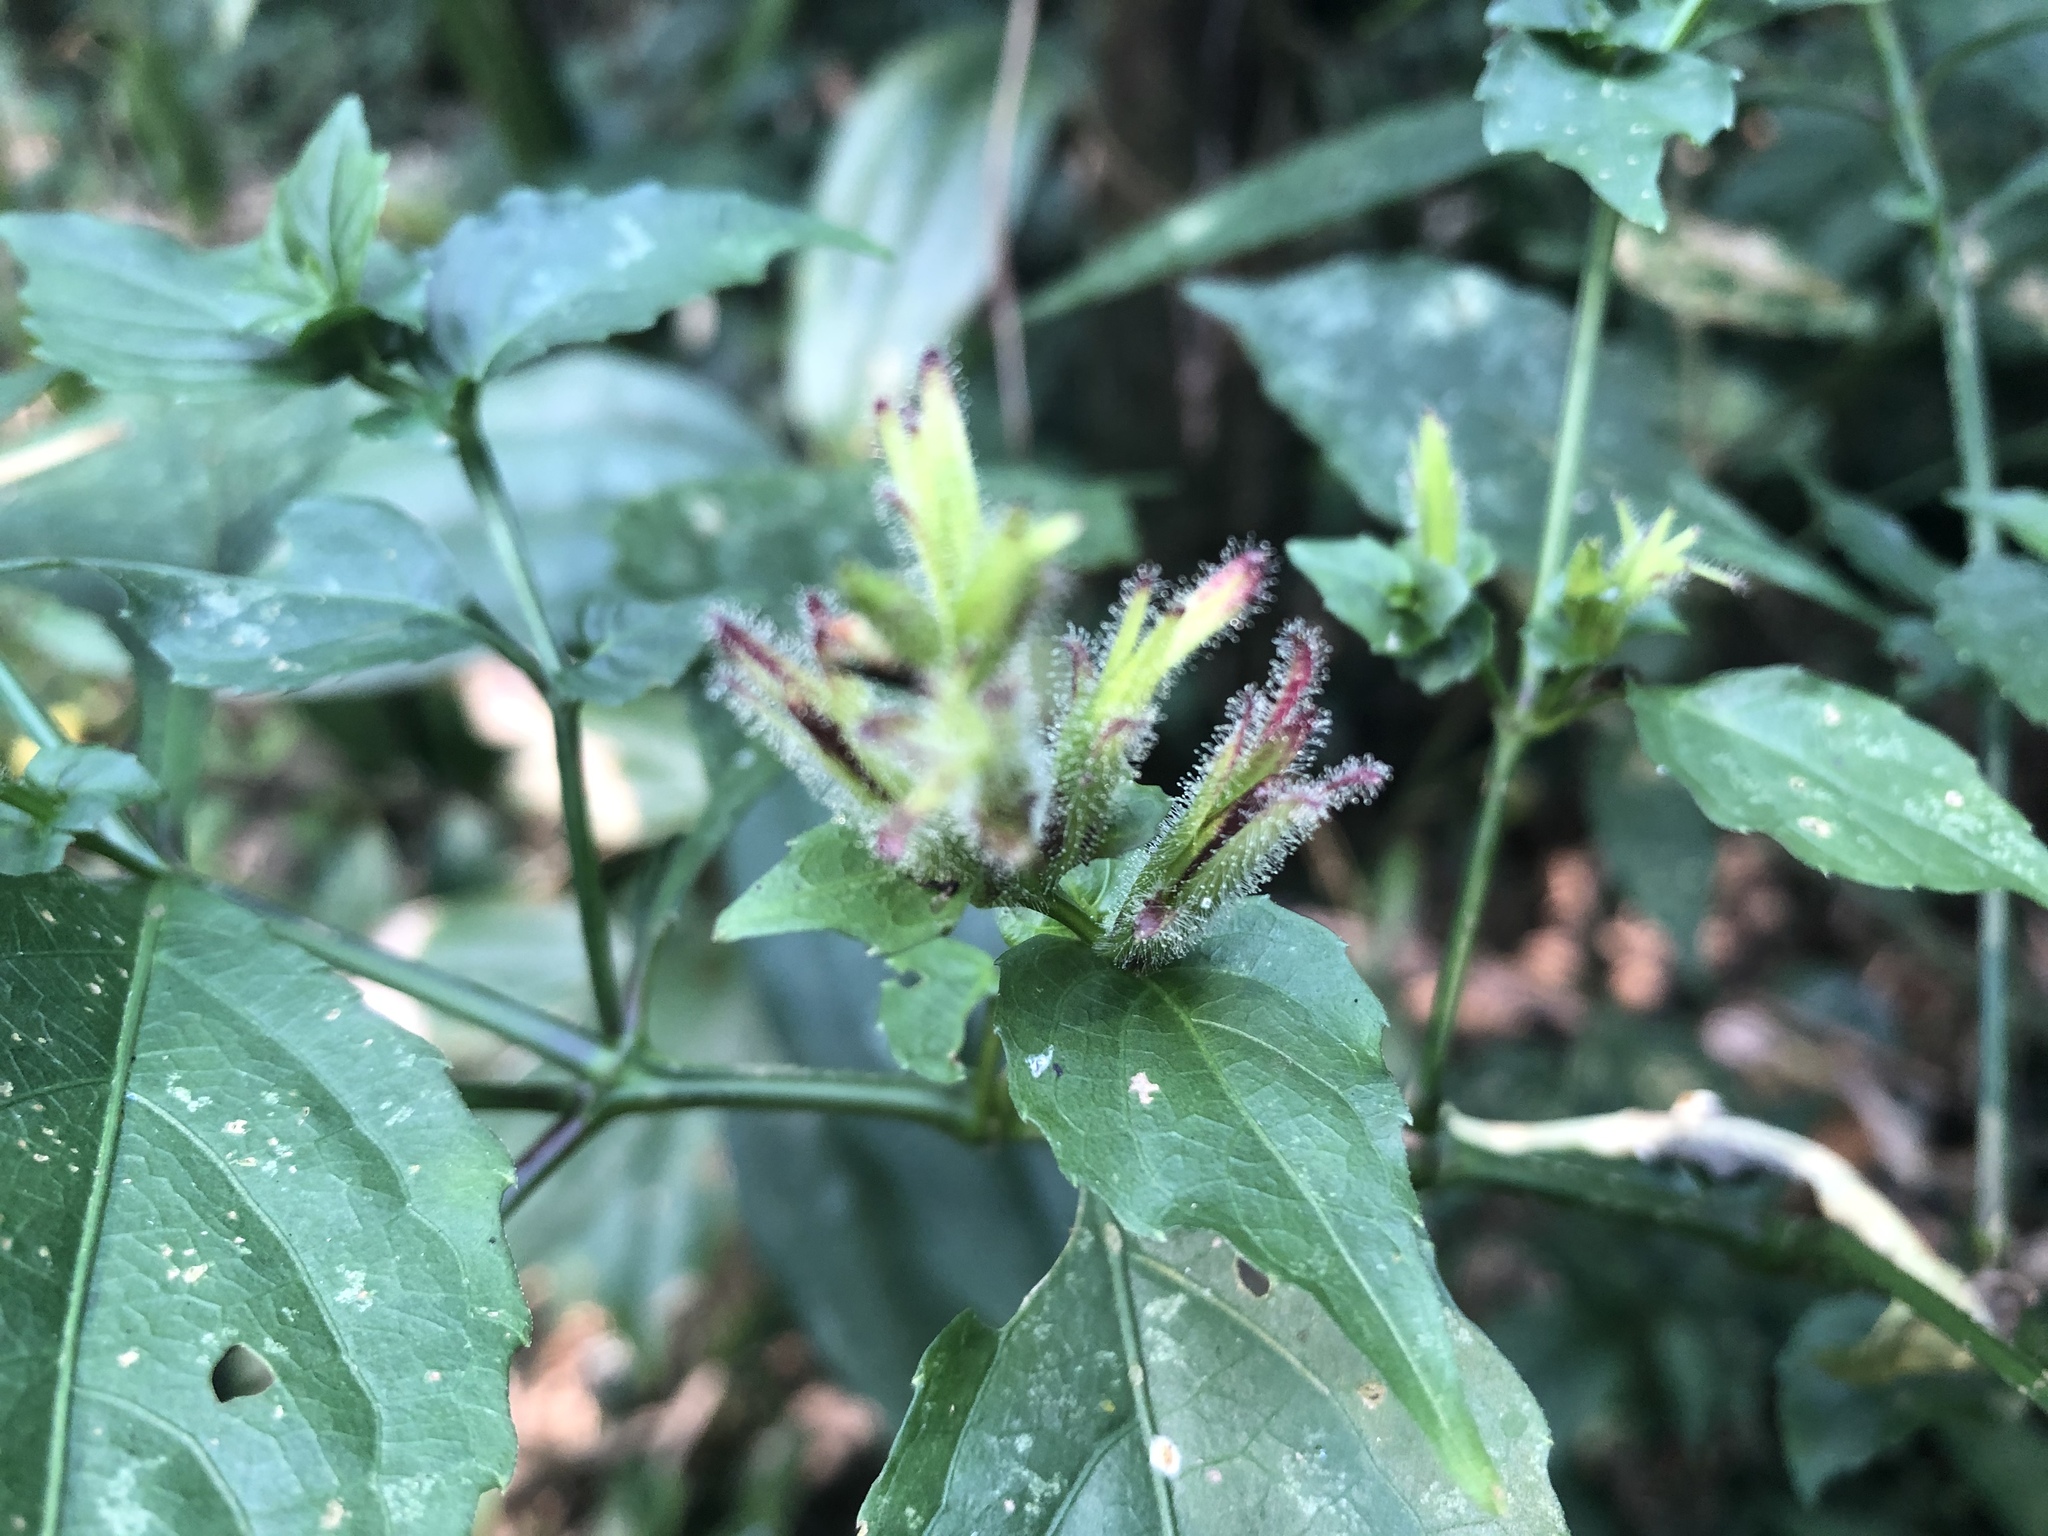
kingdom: Plantae
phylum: Tracheophyta
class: Magnoliopsida
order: Lamiales
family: Acanthaceae
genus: Strobilanthes
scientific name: Strobilanthes flexicaulis
